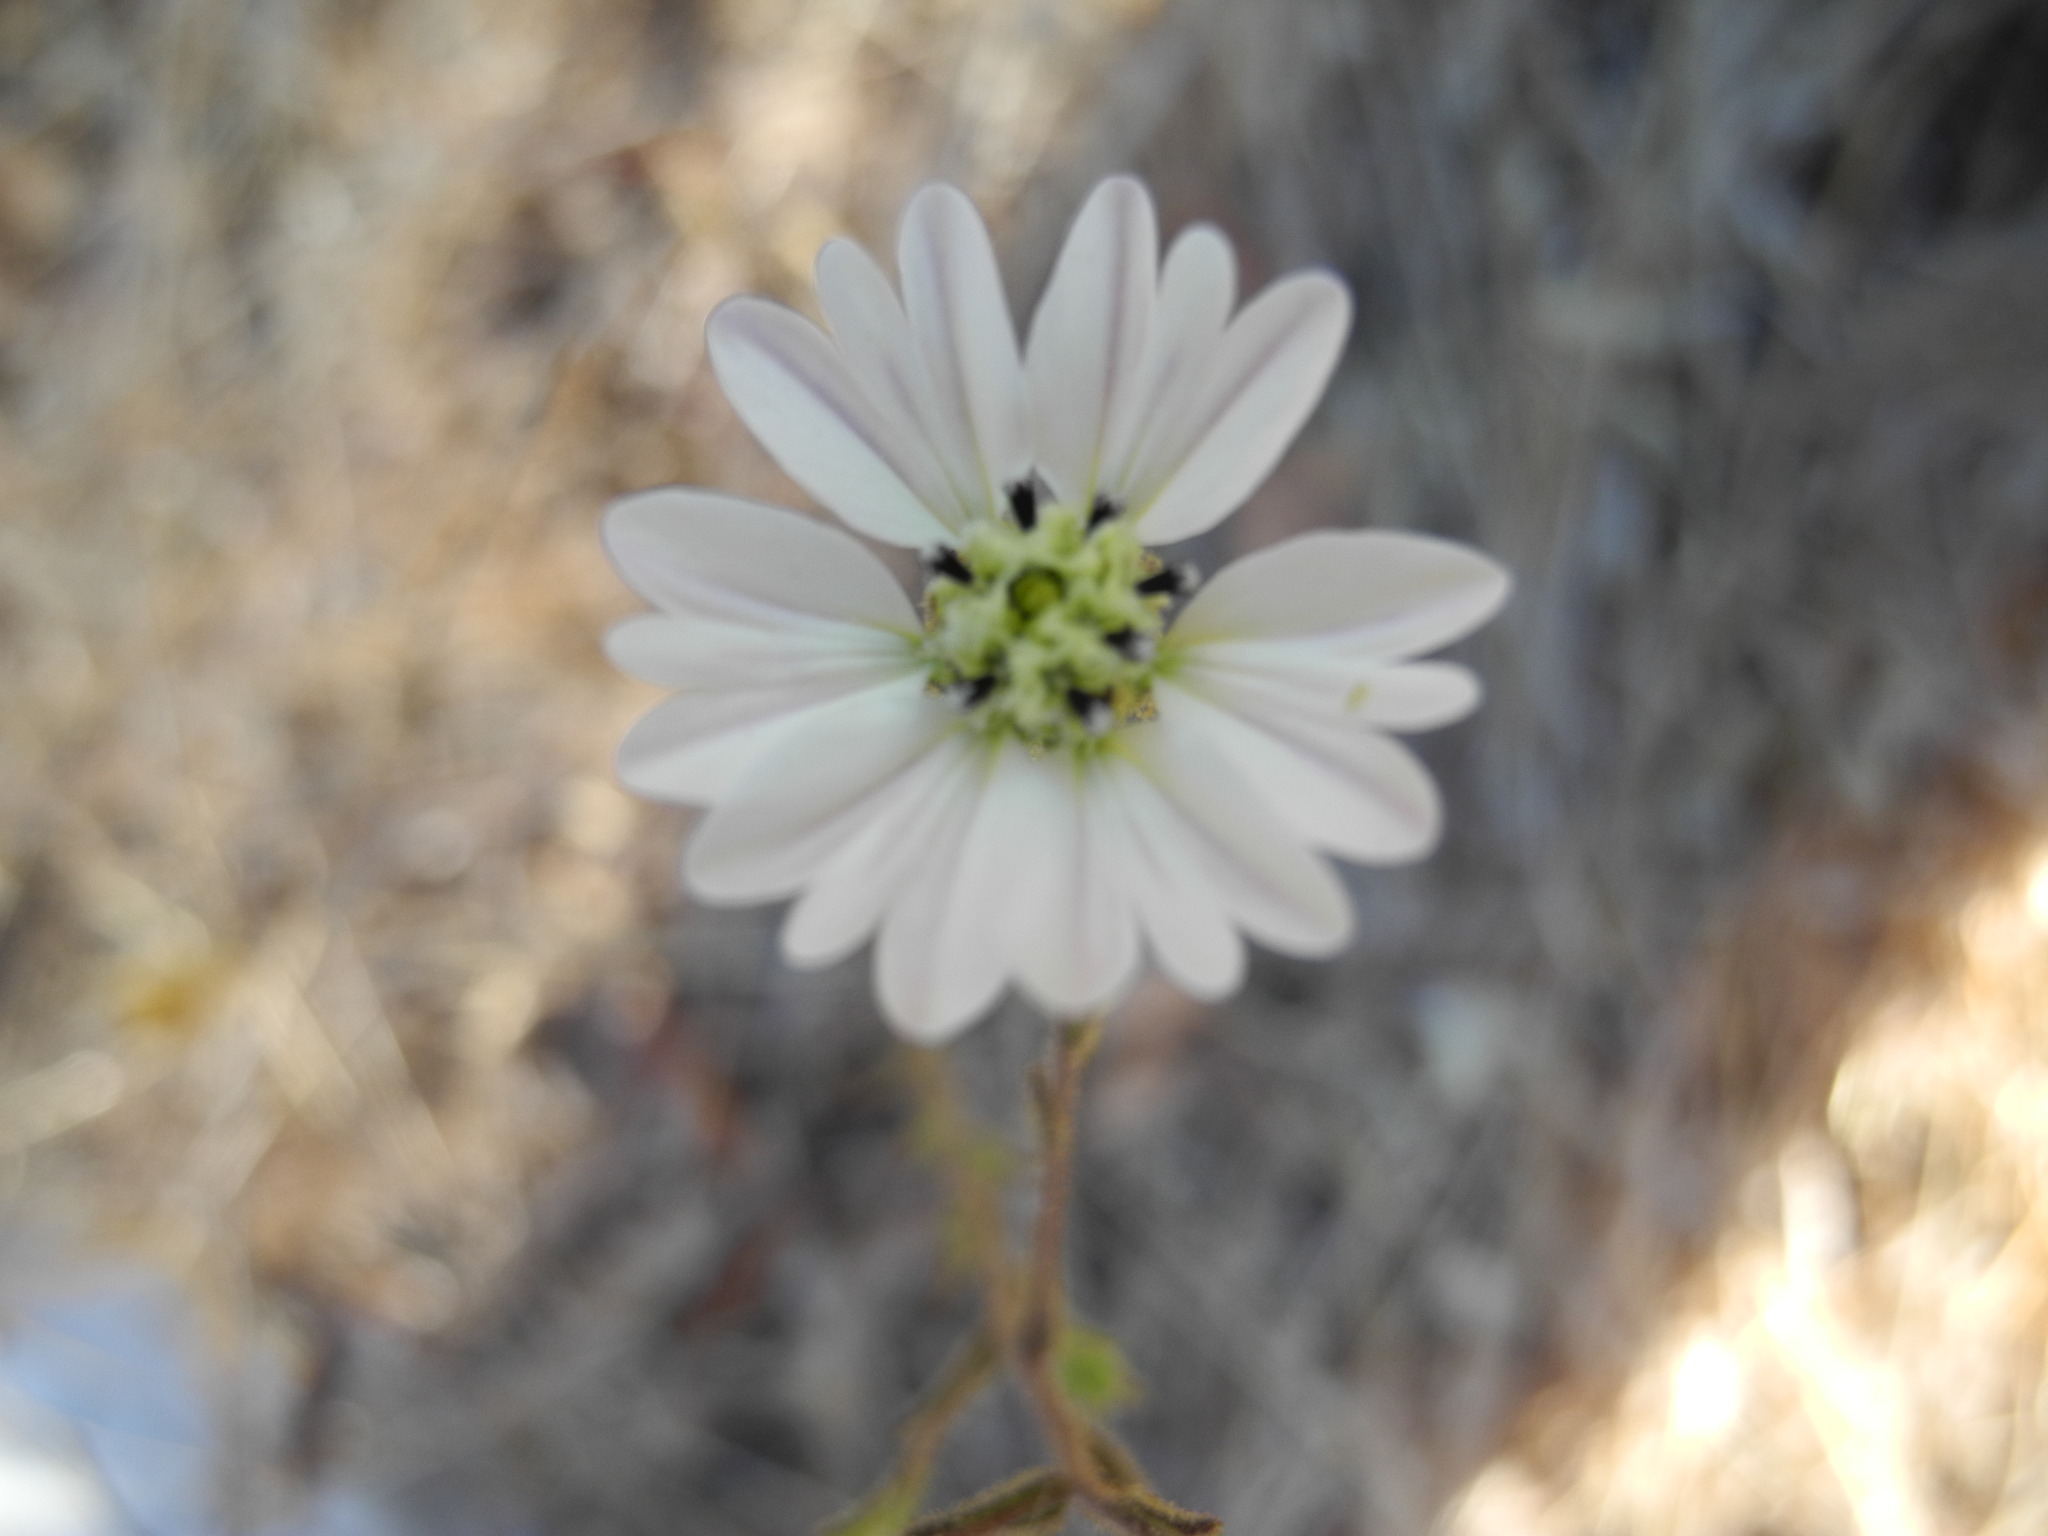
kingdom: Plantae
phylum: Tracheophyta
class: Magnoliopsida
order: Asterales
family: Asteraceae
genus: Hemizonia
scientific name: Hemizonia congesta
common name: Hayfield tarweed
